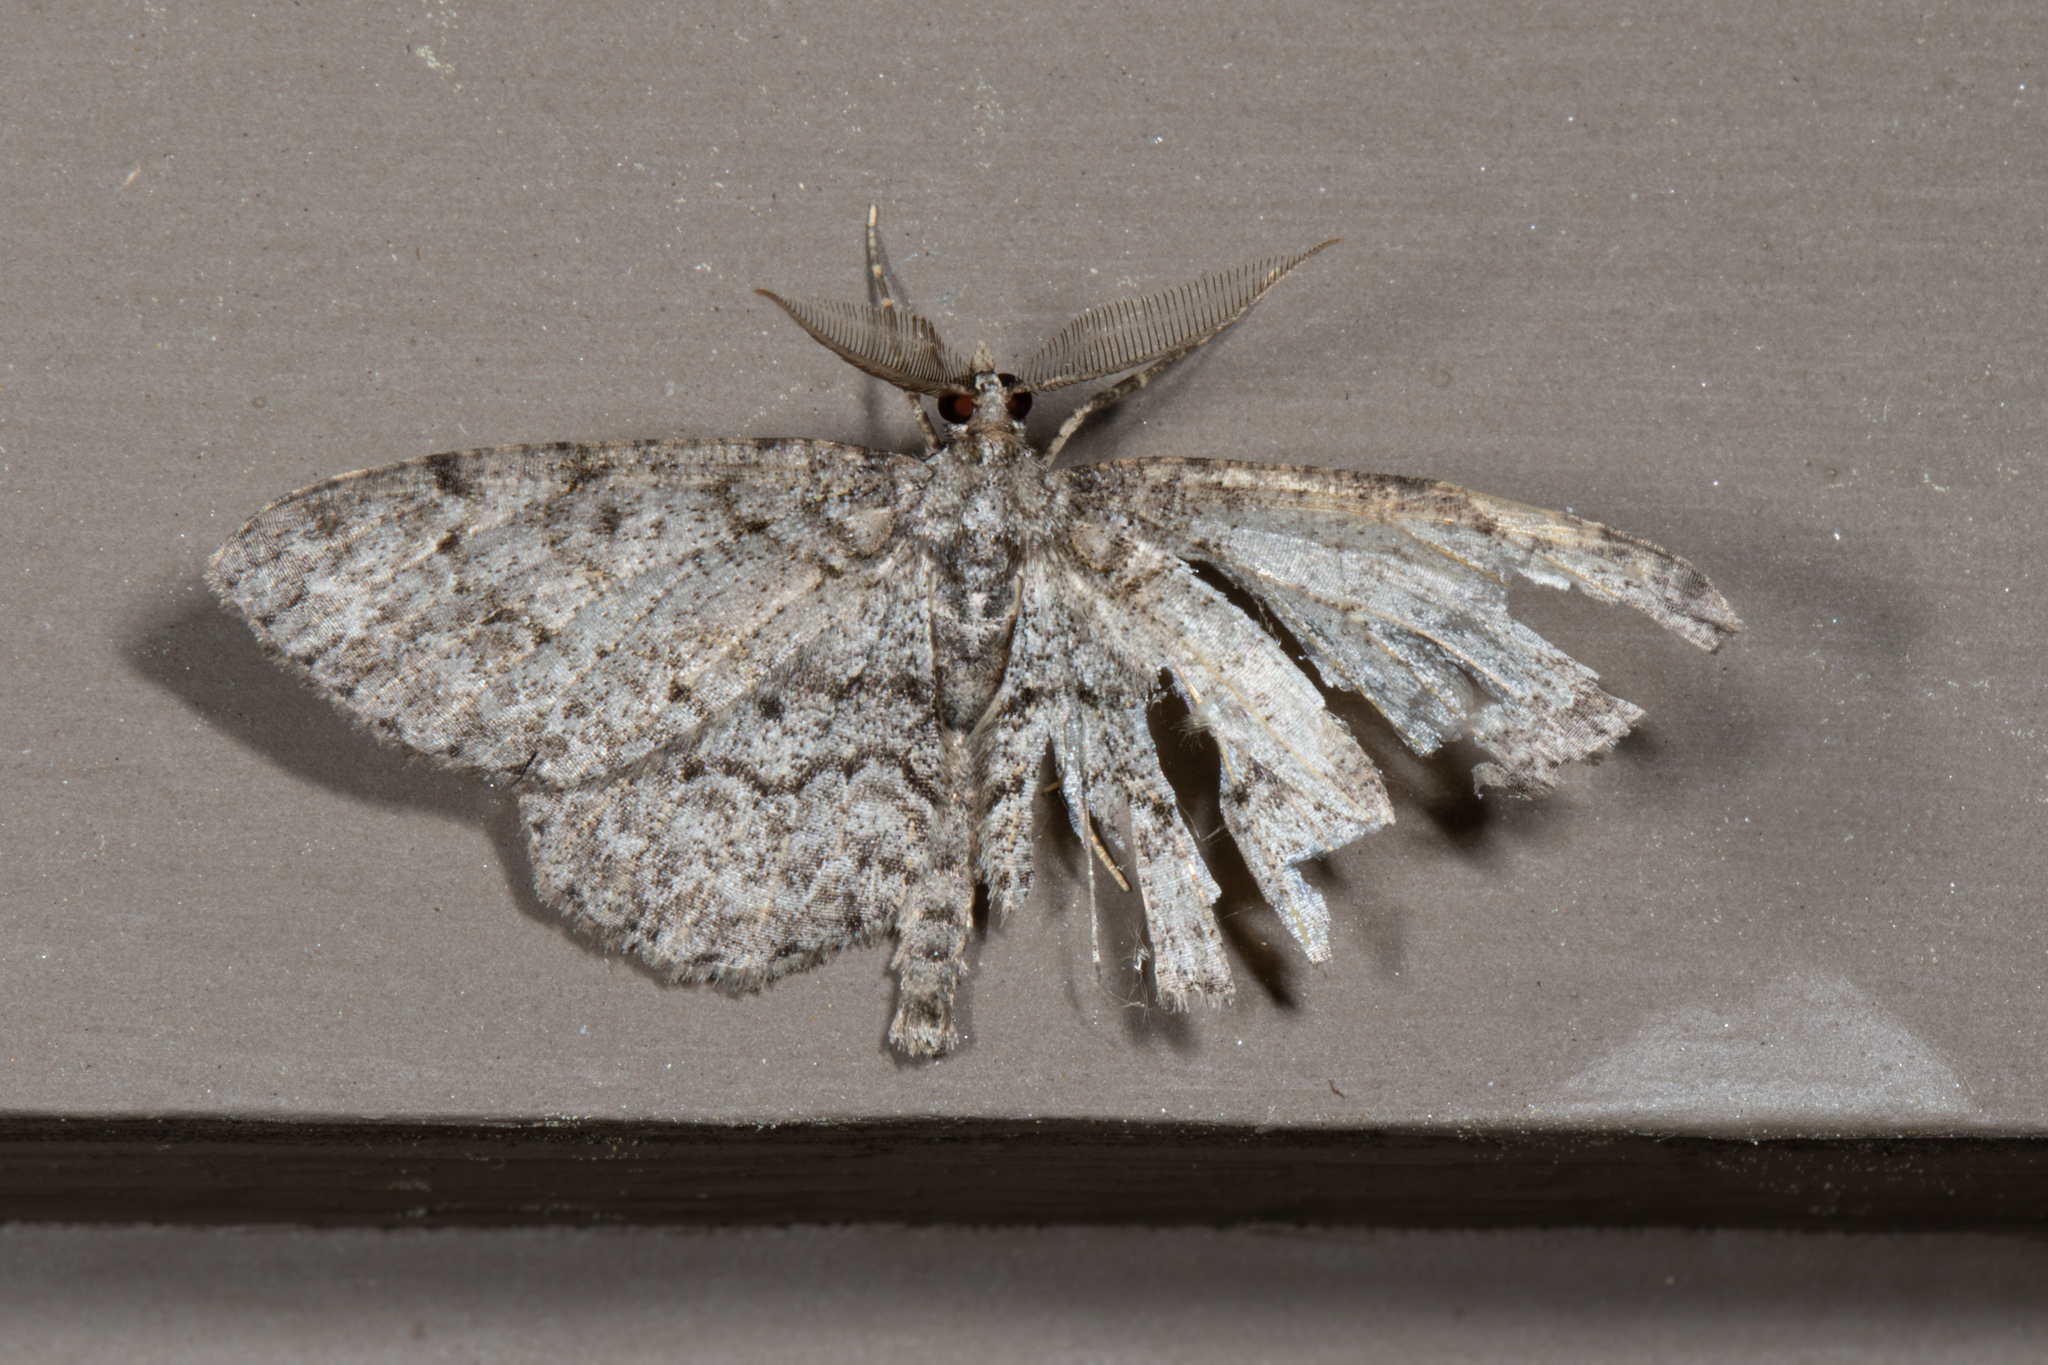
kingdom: Animalia
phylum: Arthropoda
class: Insecta
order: Lepidoptera
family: Geometridae
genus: Protoboarmia
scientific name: Protoboarmia porcelaria
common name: Porcelain gray
